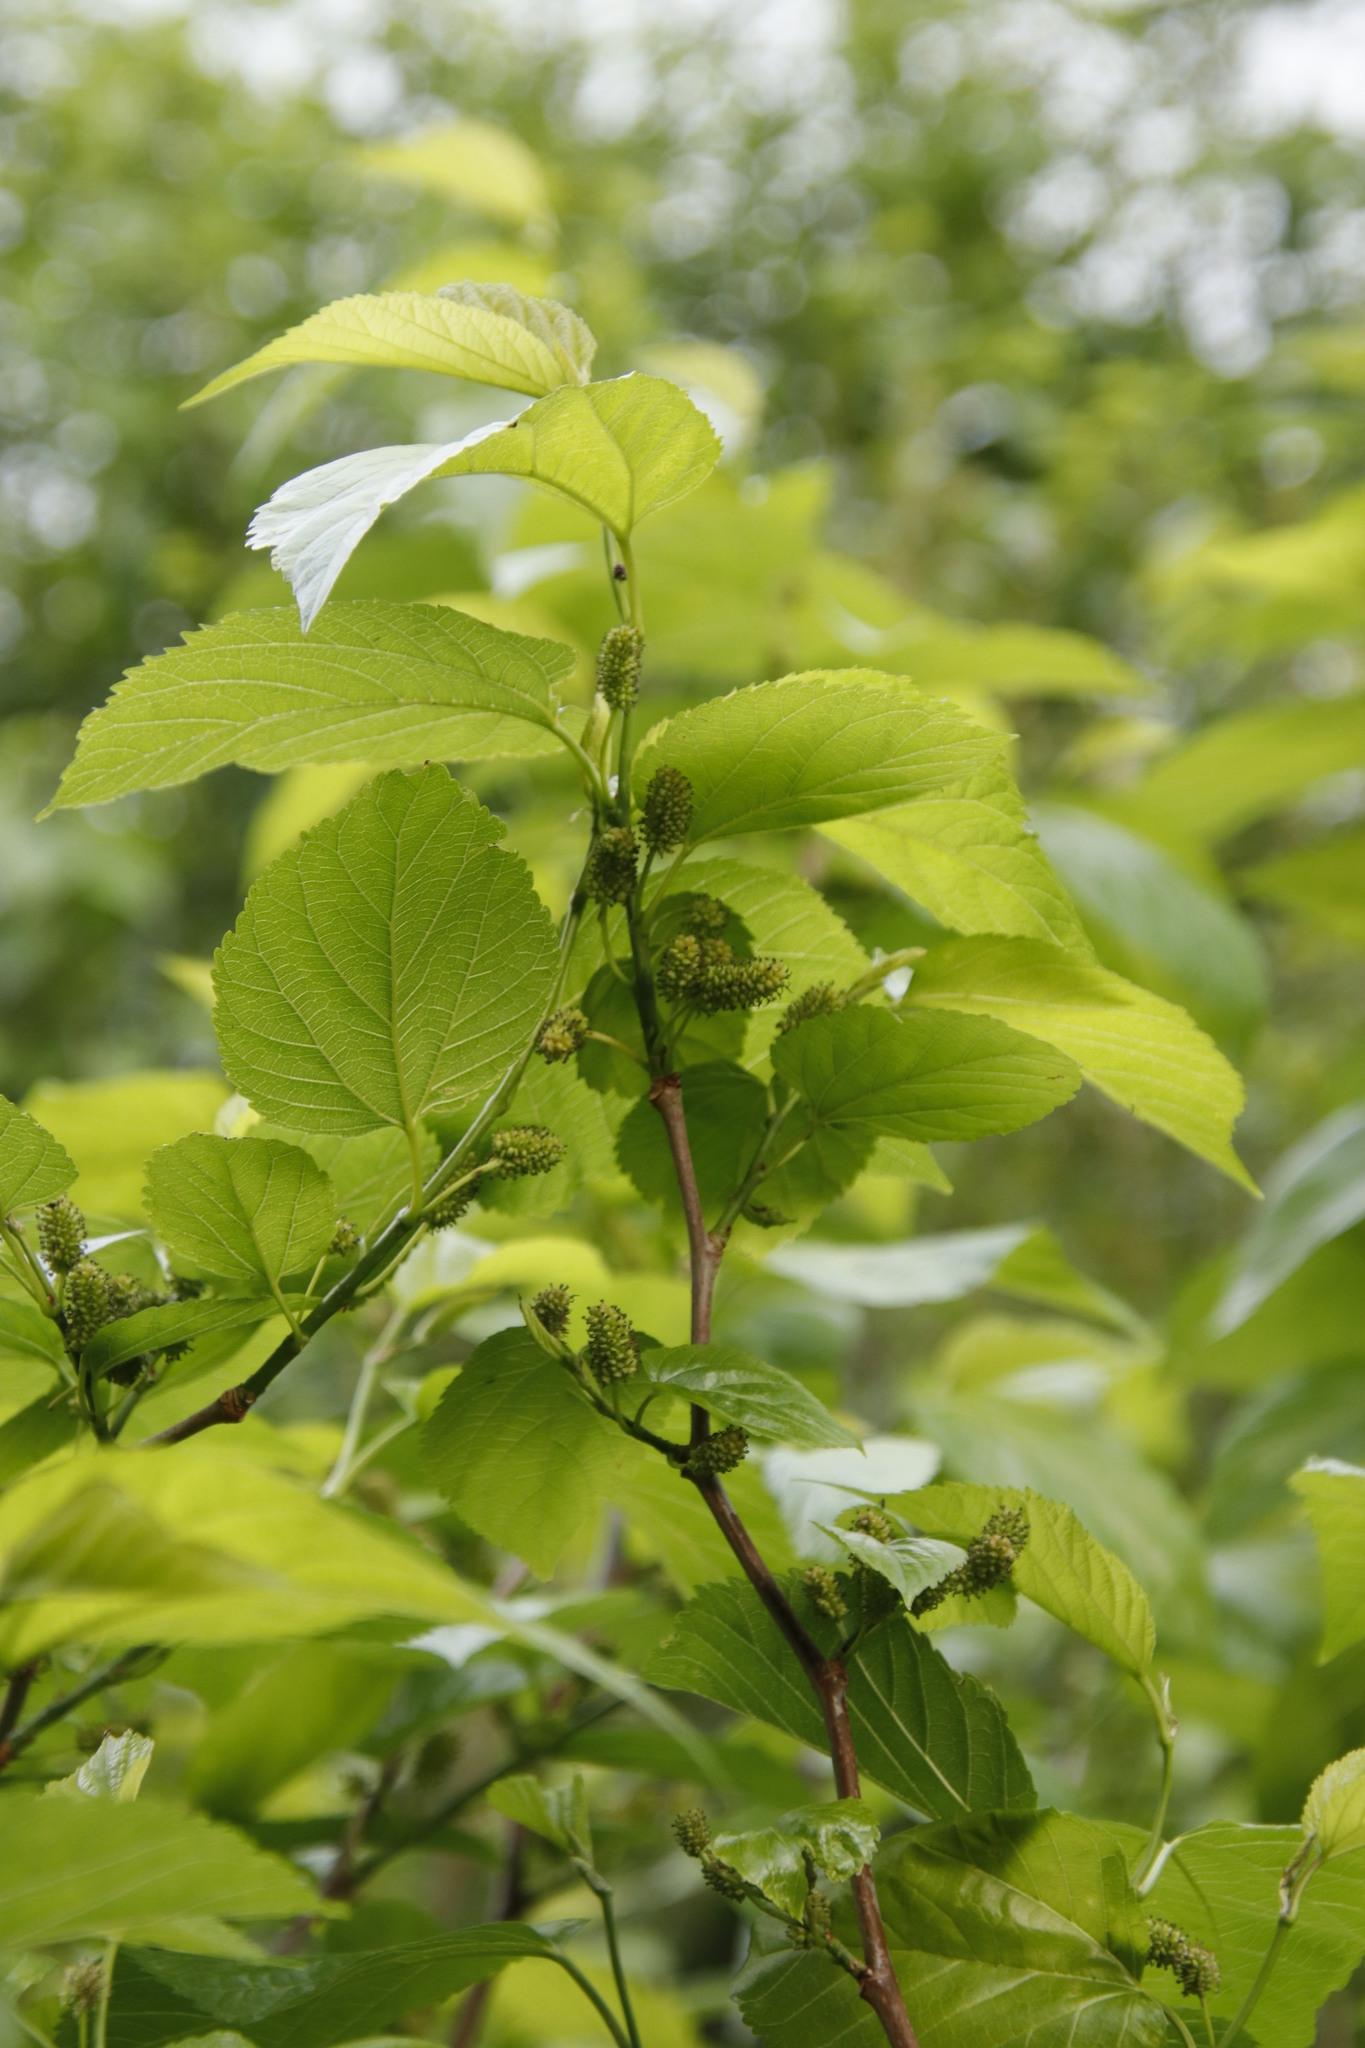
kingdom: Plantae
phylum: Tracheophyta
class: Magnoliopsida
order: Rosales
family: Moraceae
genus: Morus
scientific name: Morus alba
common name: White mulberry
